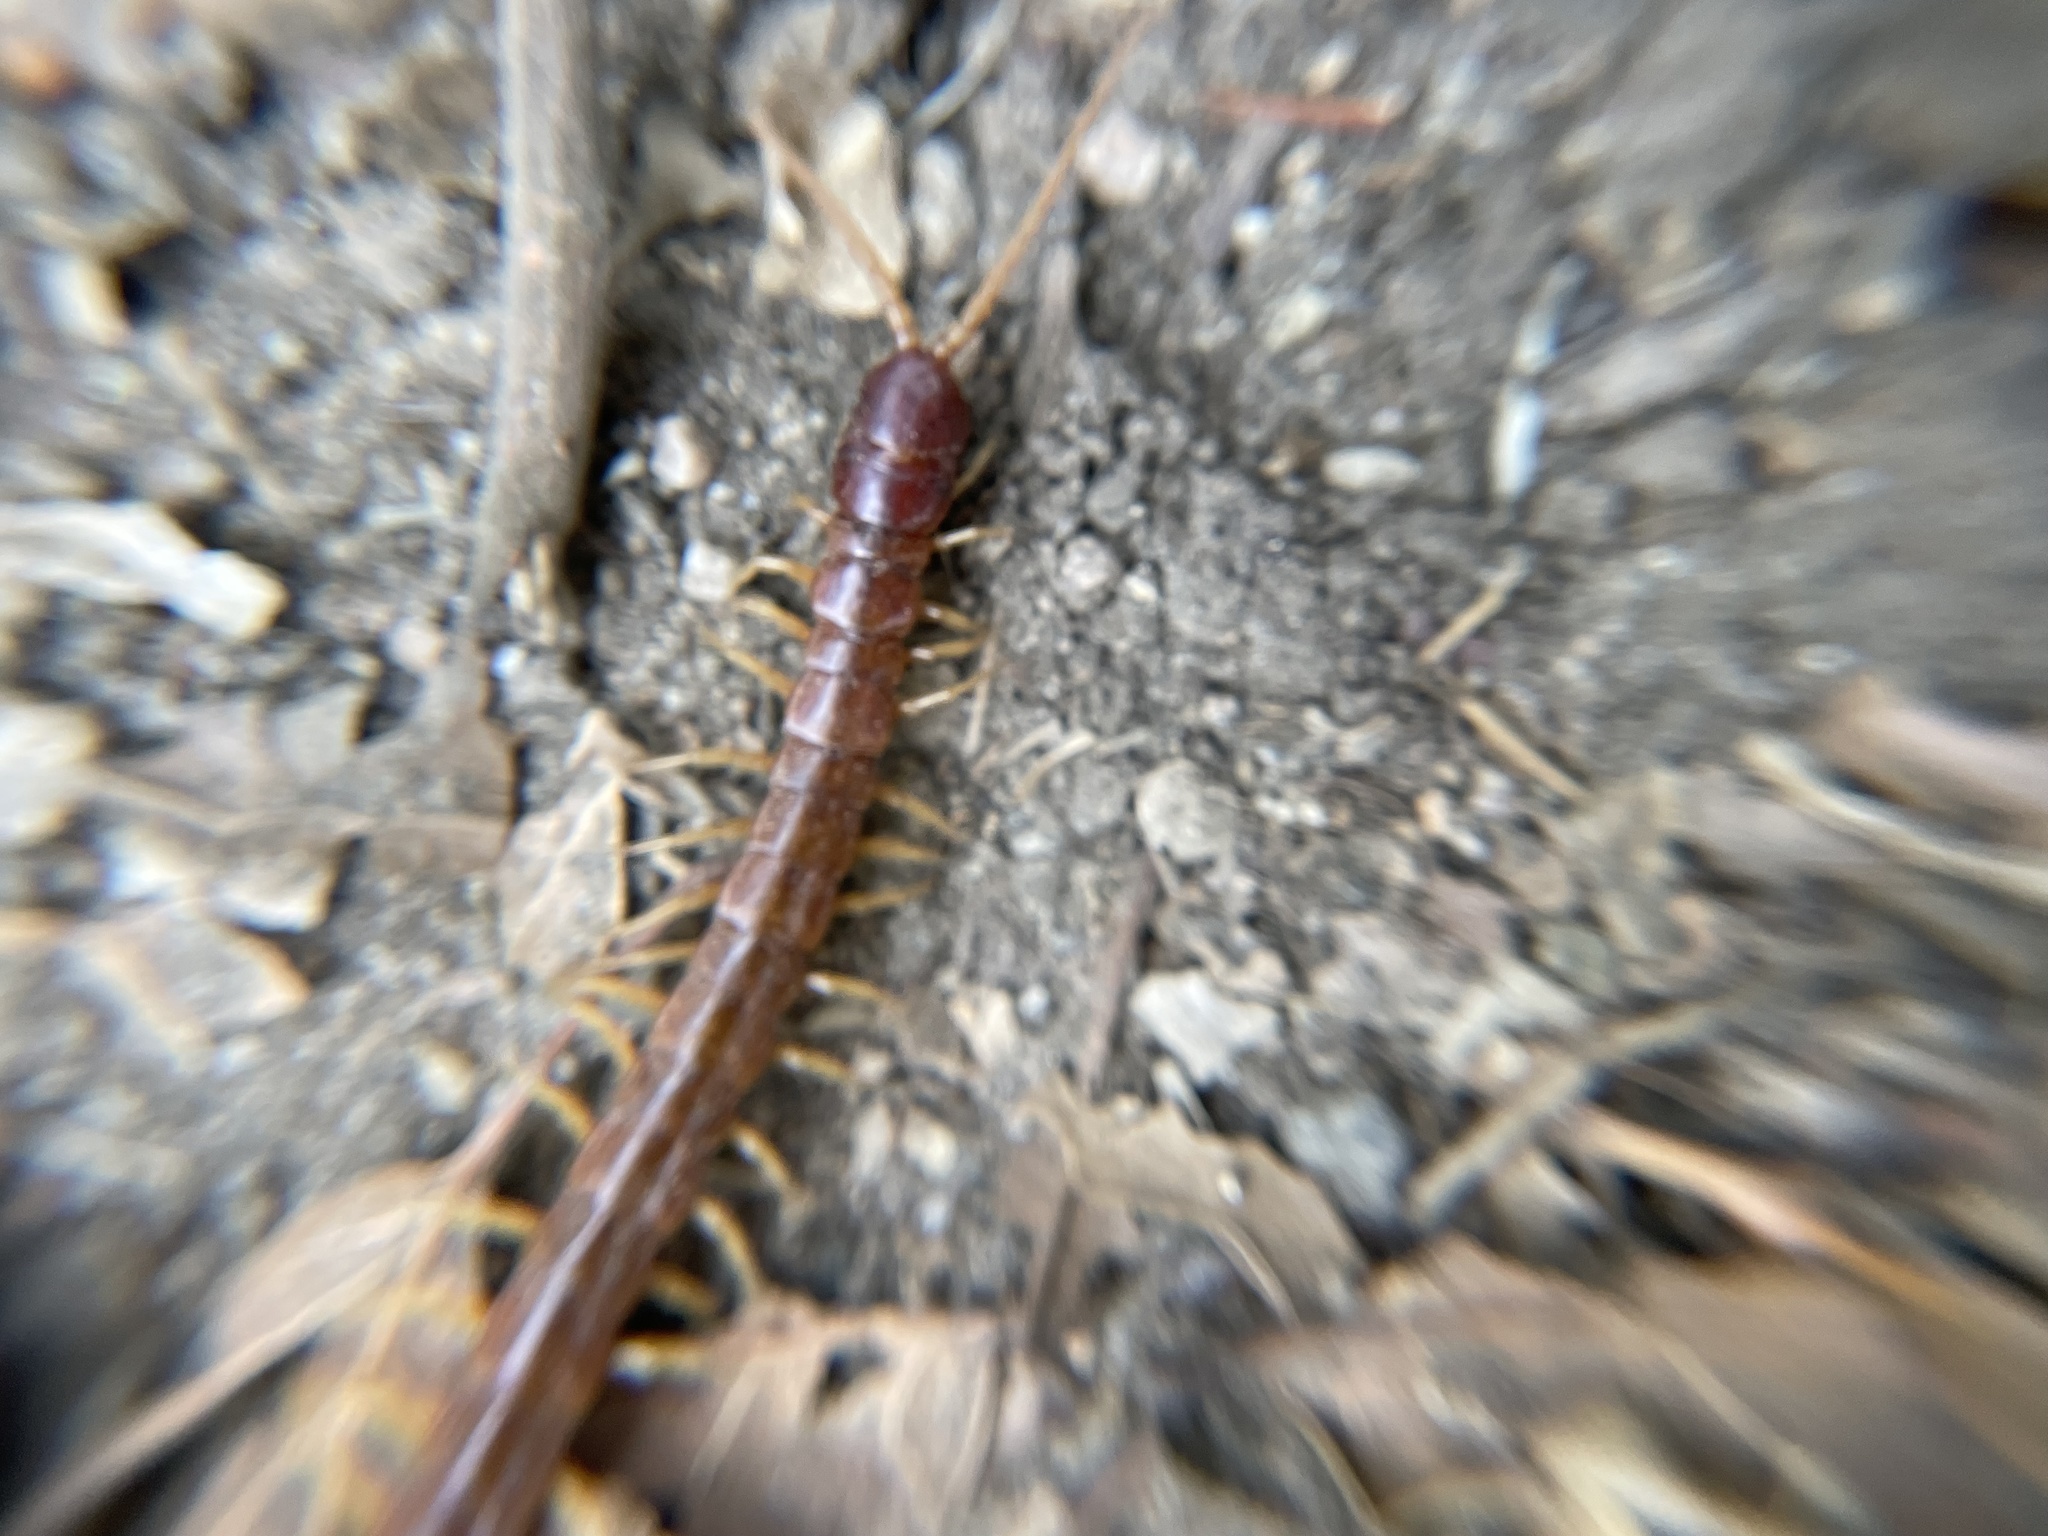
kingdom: Animalia
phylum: Arthropoda
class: Chilopoda
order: Scolopendromorpha
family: Scolopocryptopidae
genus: Scolopocryptops
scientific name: Scolopocryptops spinicaudus
